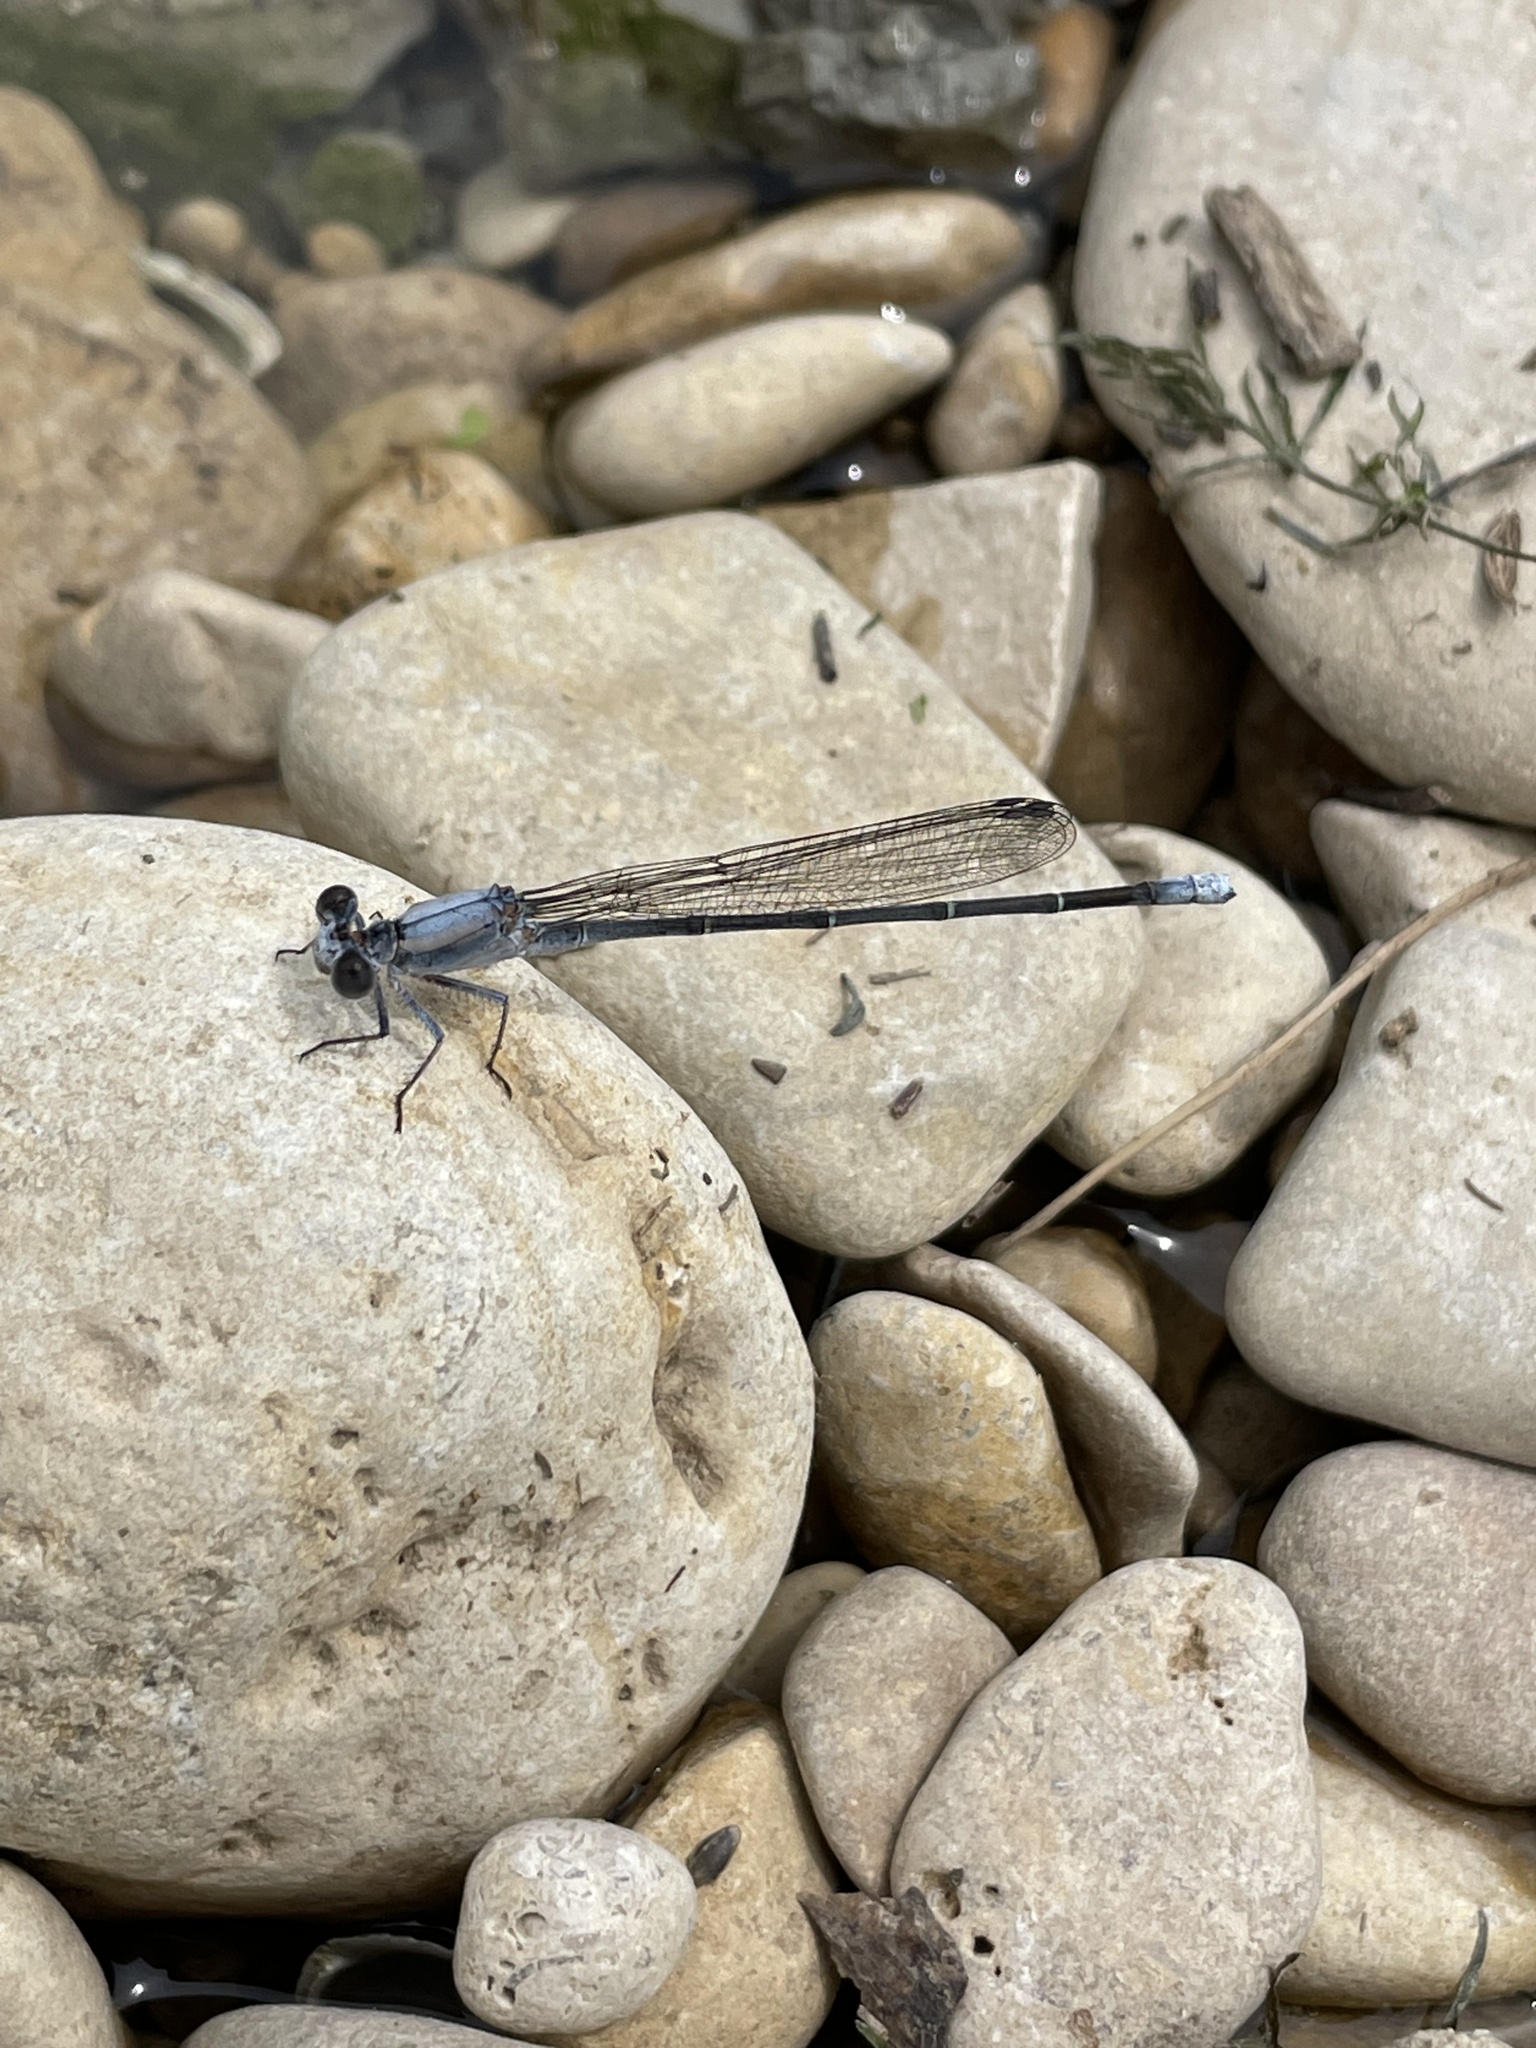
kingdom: Animalia
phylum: Arthropoda
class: Insecta
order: Odonata
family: Coenagrionidae
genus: Argia
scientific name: Argia moesta
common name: Powdered dancer
